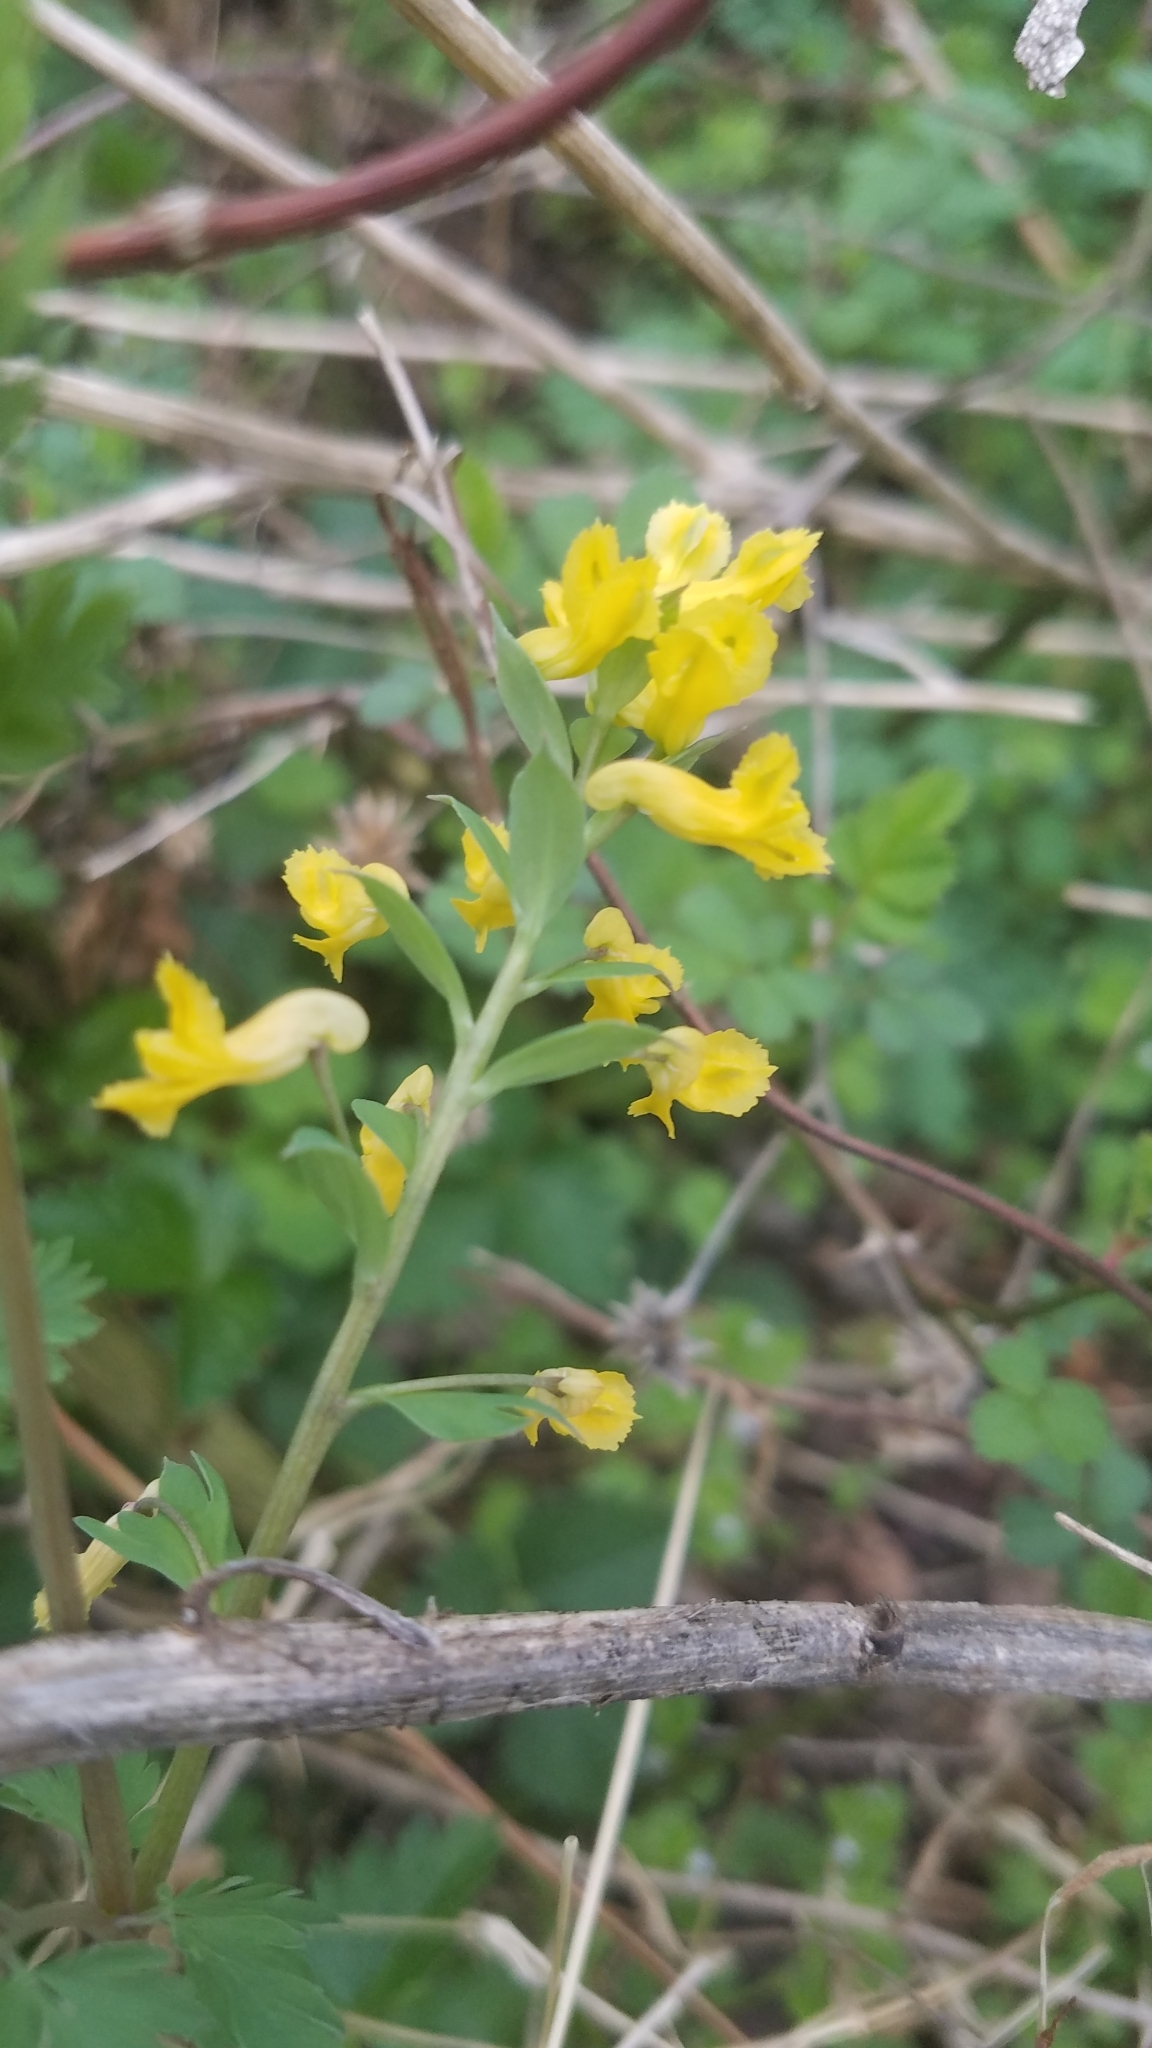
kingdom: Plantae
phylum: Tracheophyta
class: Magnoliopsida
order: Ranunculales
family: Papaveraceae
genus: Corydalis
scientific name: Corydalis flavula
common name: Yellow corydalis
